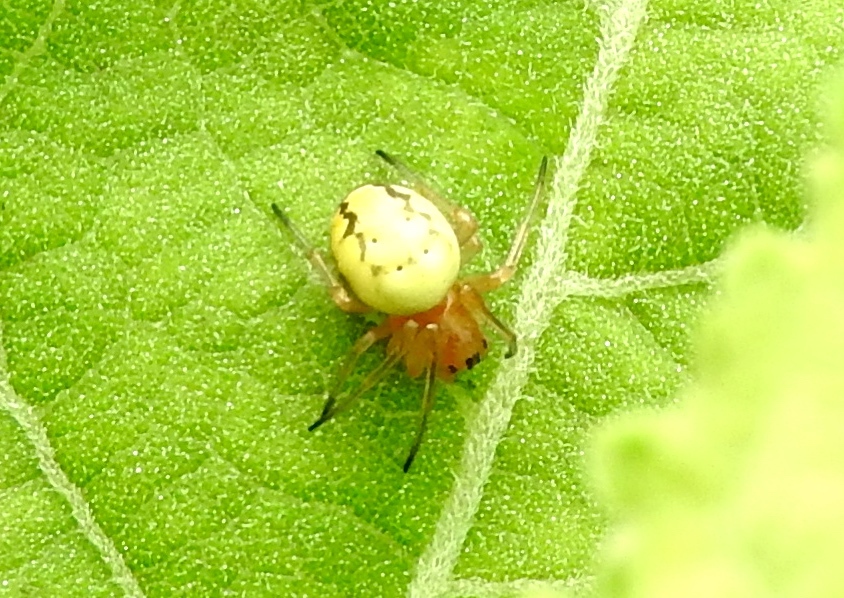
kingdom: Animalia
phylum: Arthropoda
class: Arachnida
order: Araneae
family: Araneidae
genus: Araneus
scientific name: Araneus
